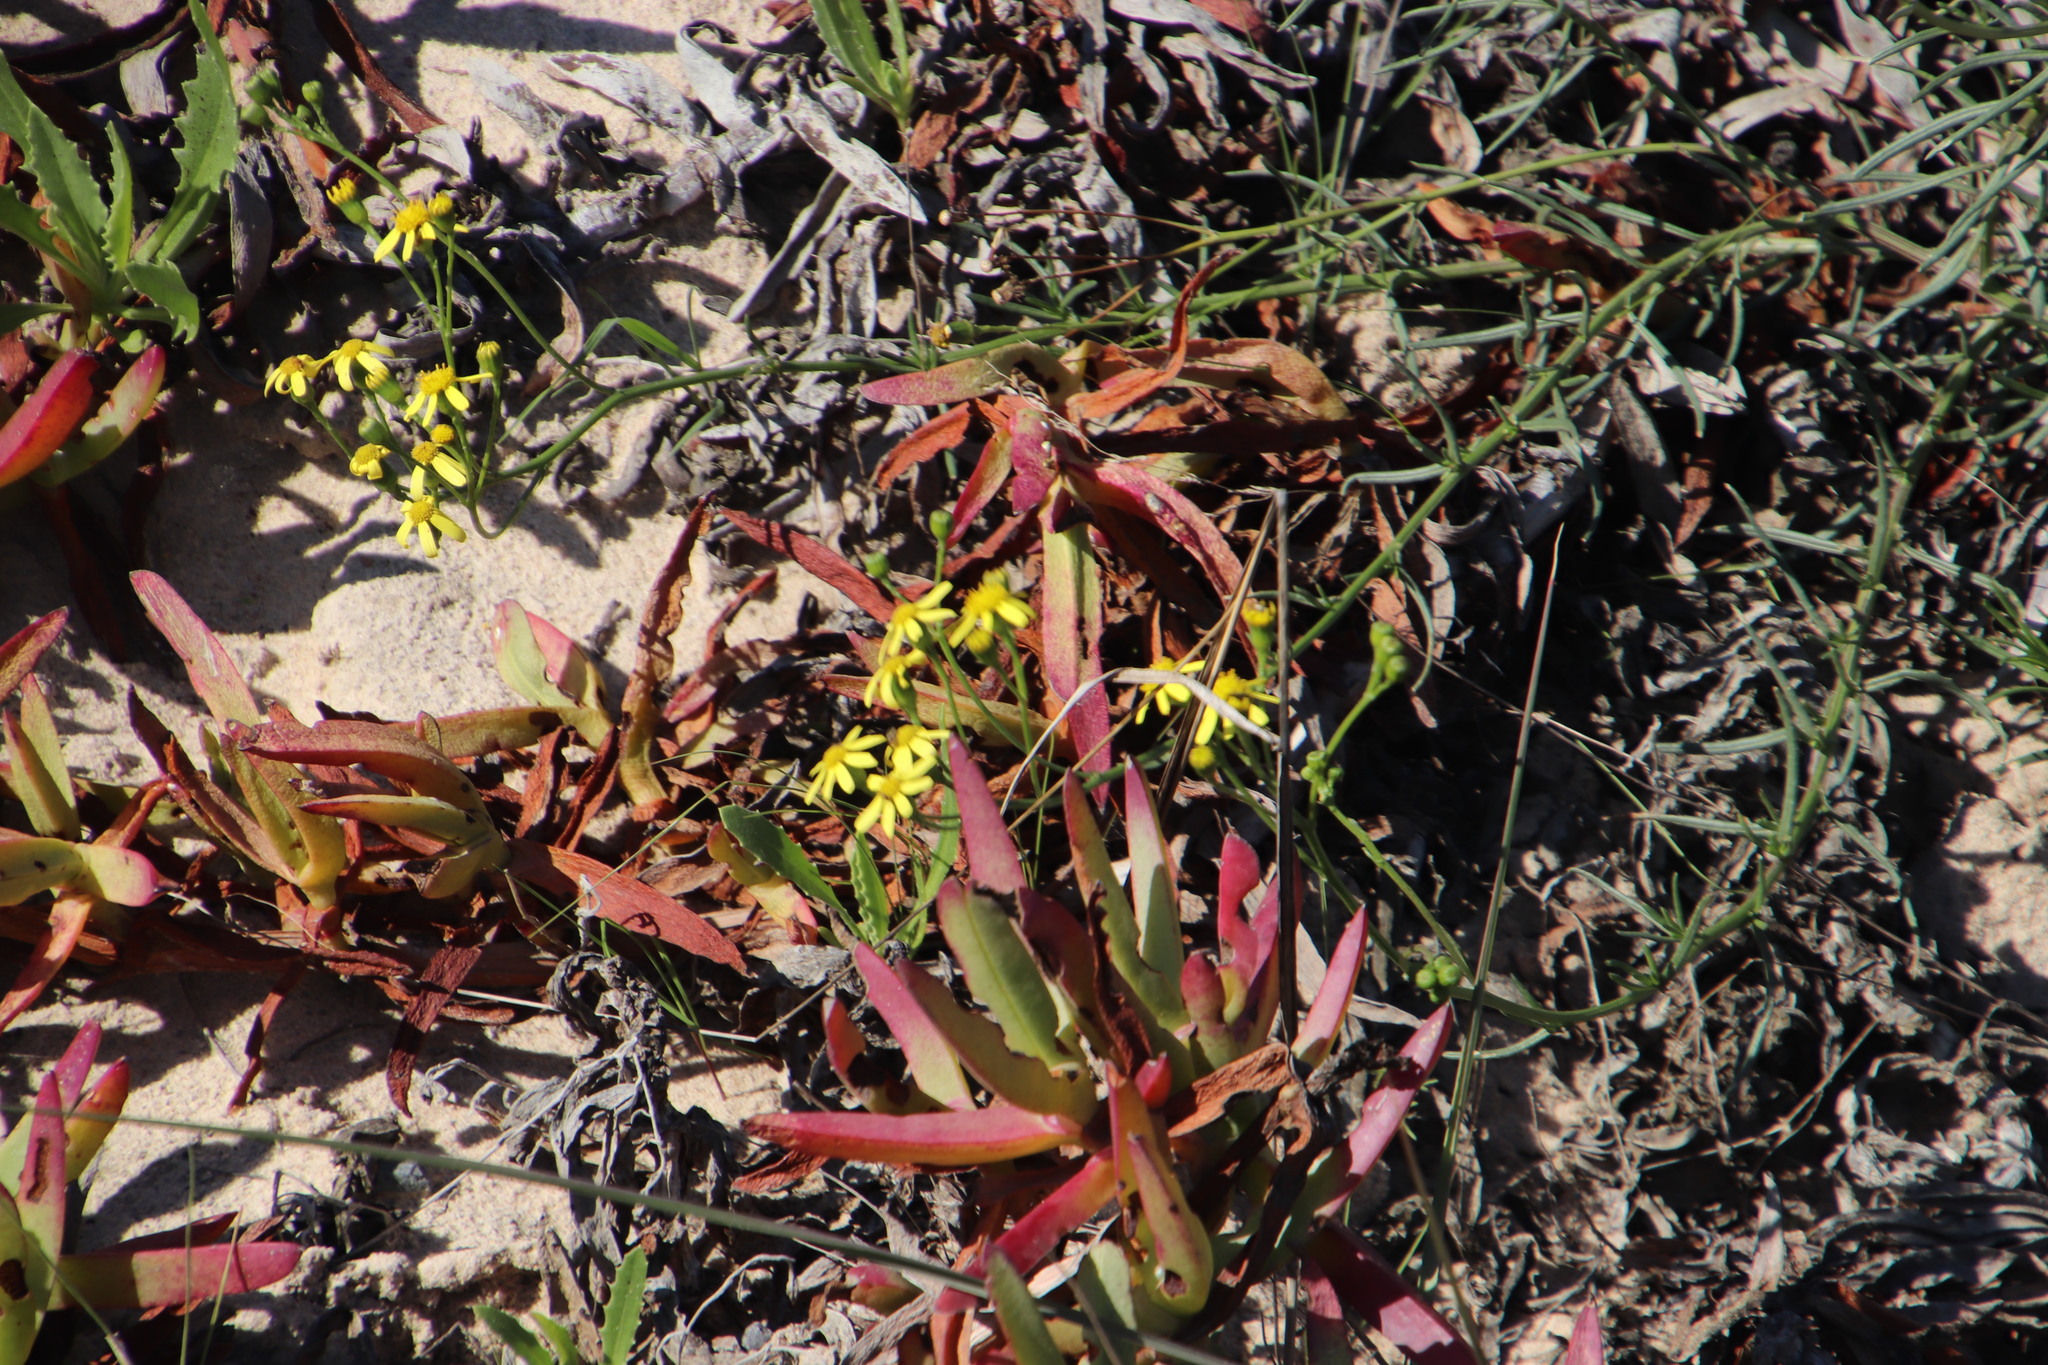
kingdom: Plantae
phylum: Tracheophyta
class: Magnoliopsida
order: Asterales
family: Asteraceae
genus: Senecio
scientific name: Senecio rosmarinifolius
